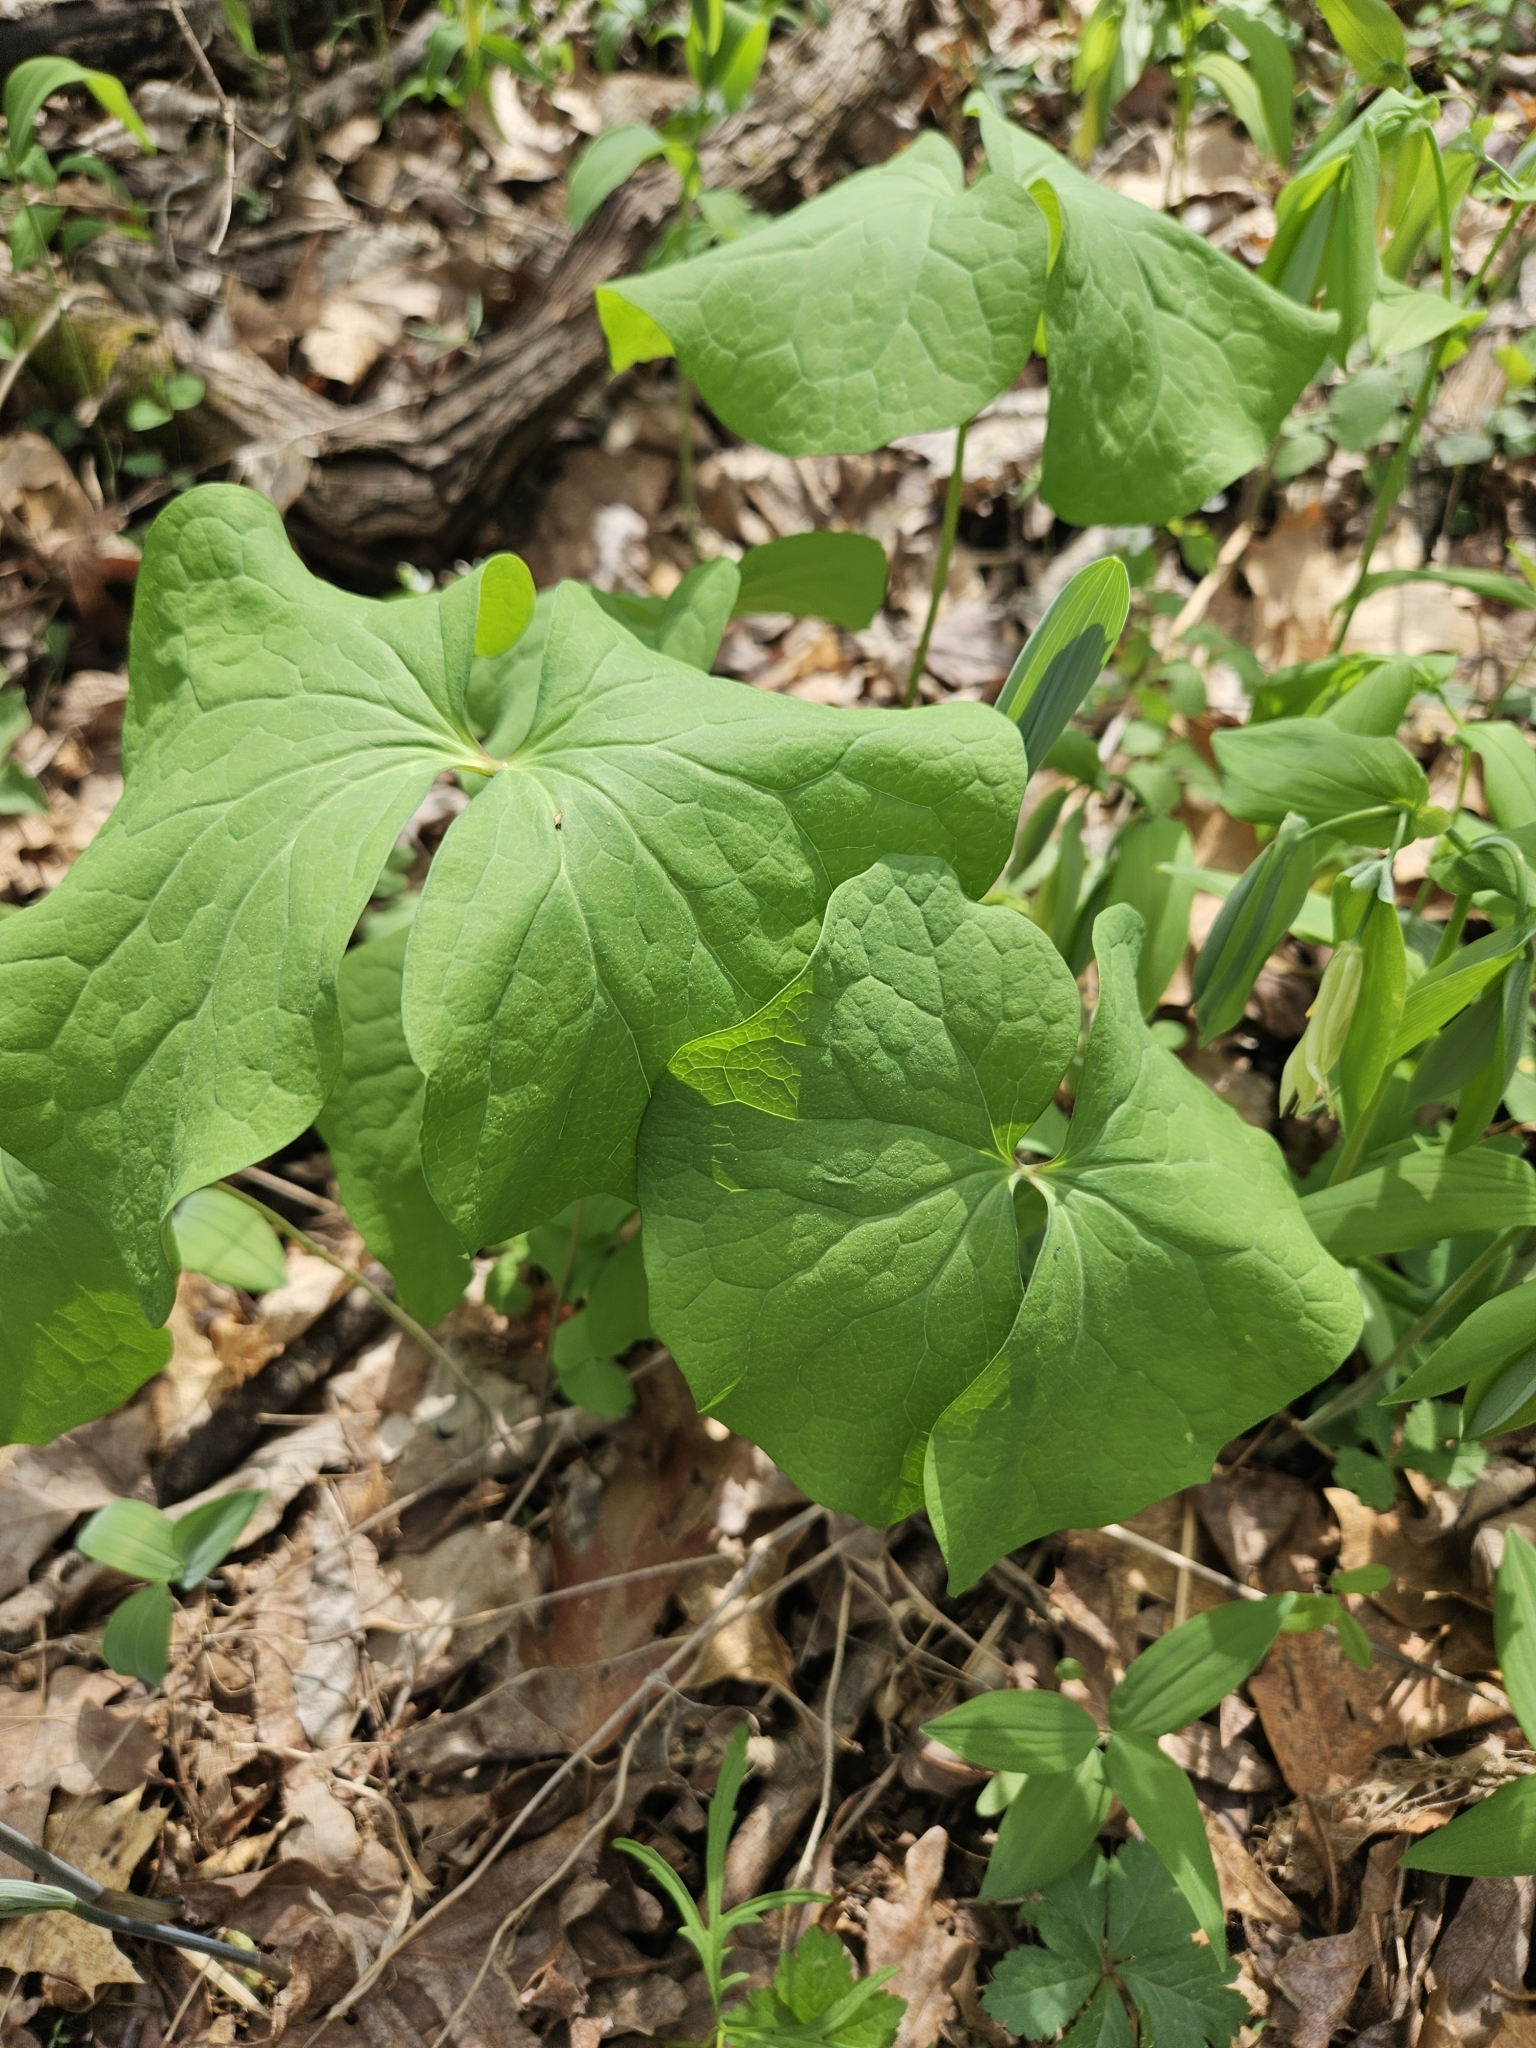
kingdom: Plantae
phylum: Tracheophyta
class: Magnoliopsida
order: Ranunculales
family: Berberidaceae
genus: Jeffersonia
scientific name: Jeffersonia diphylla
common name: Rheumatism-root
